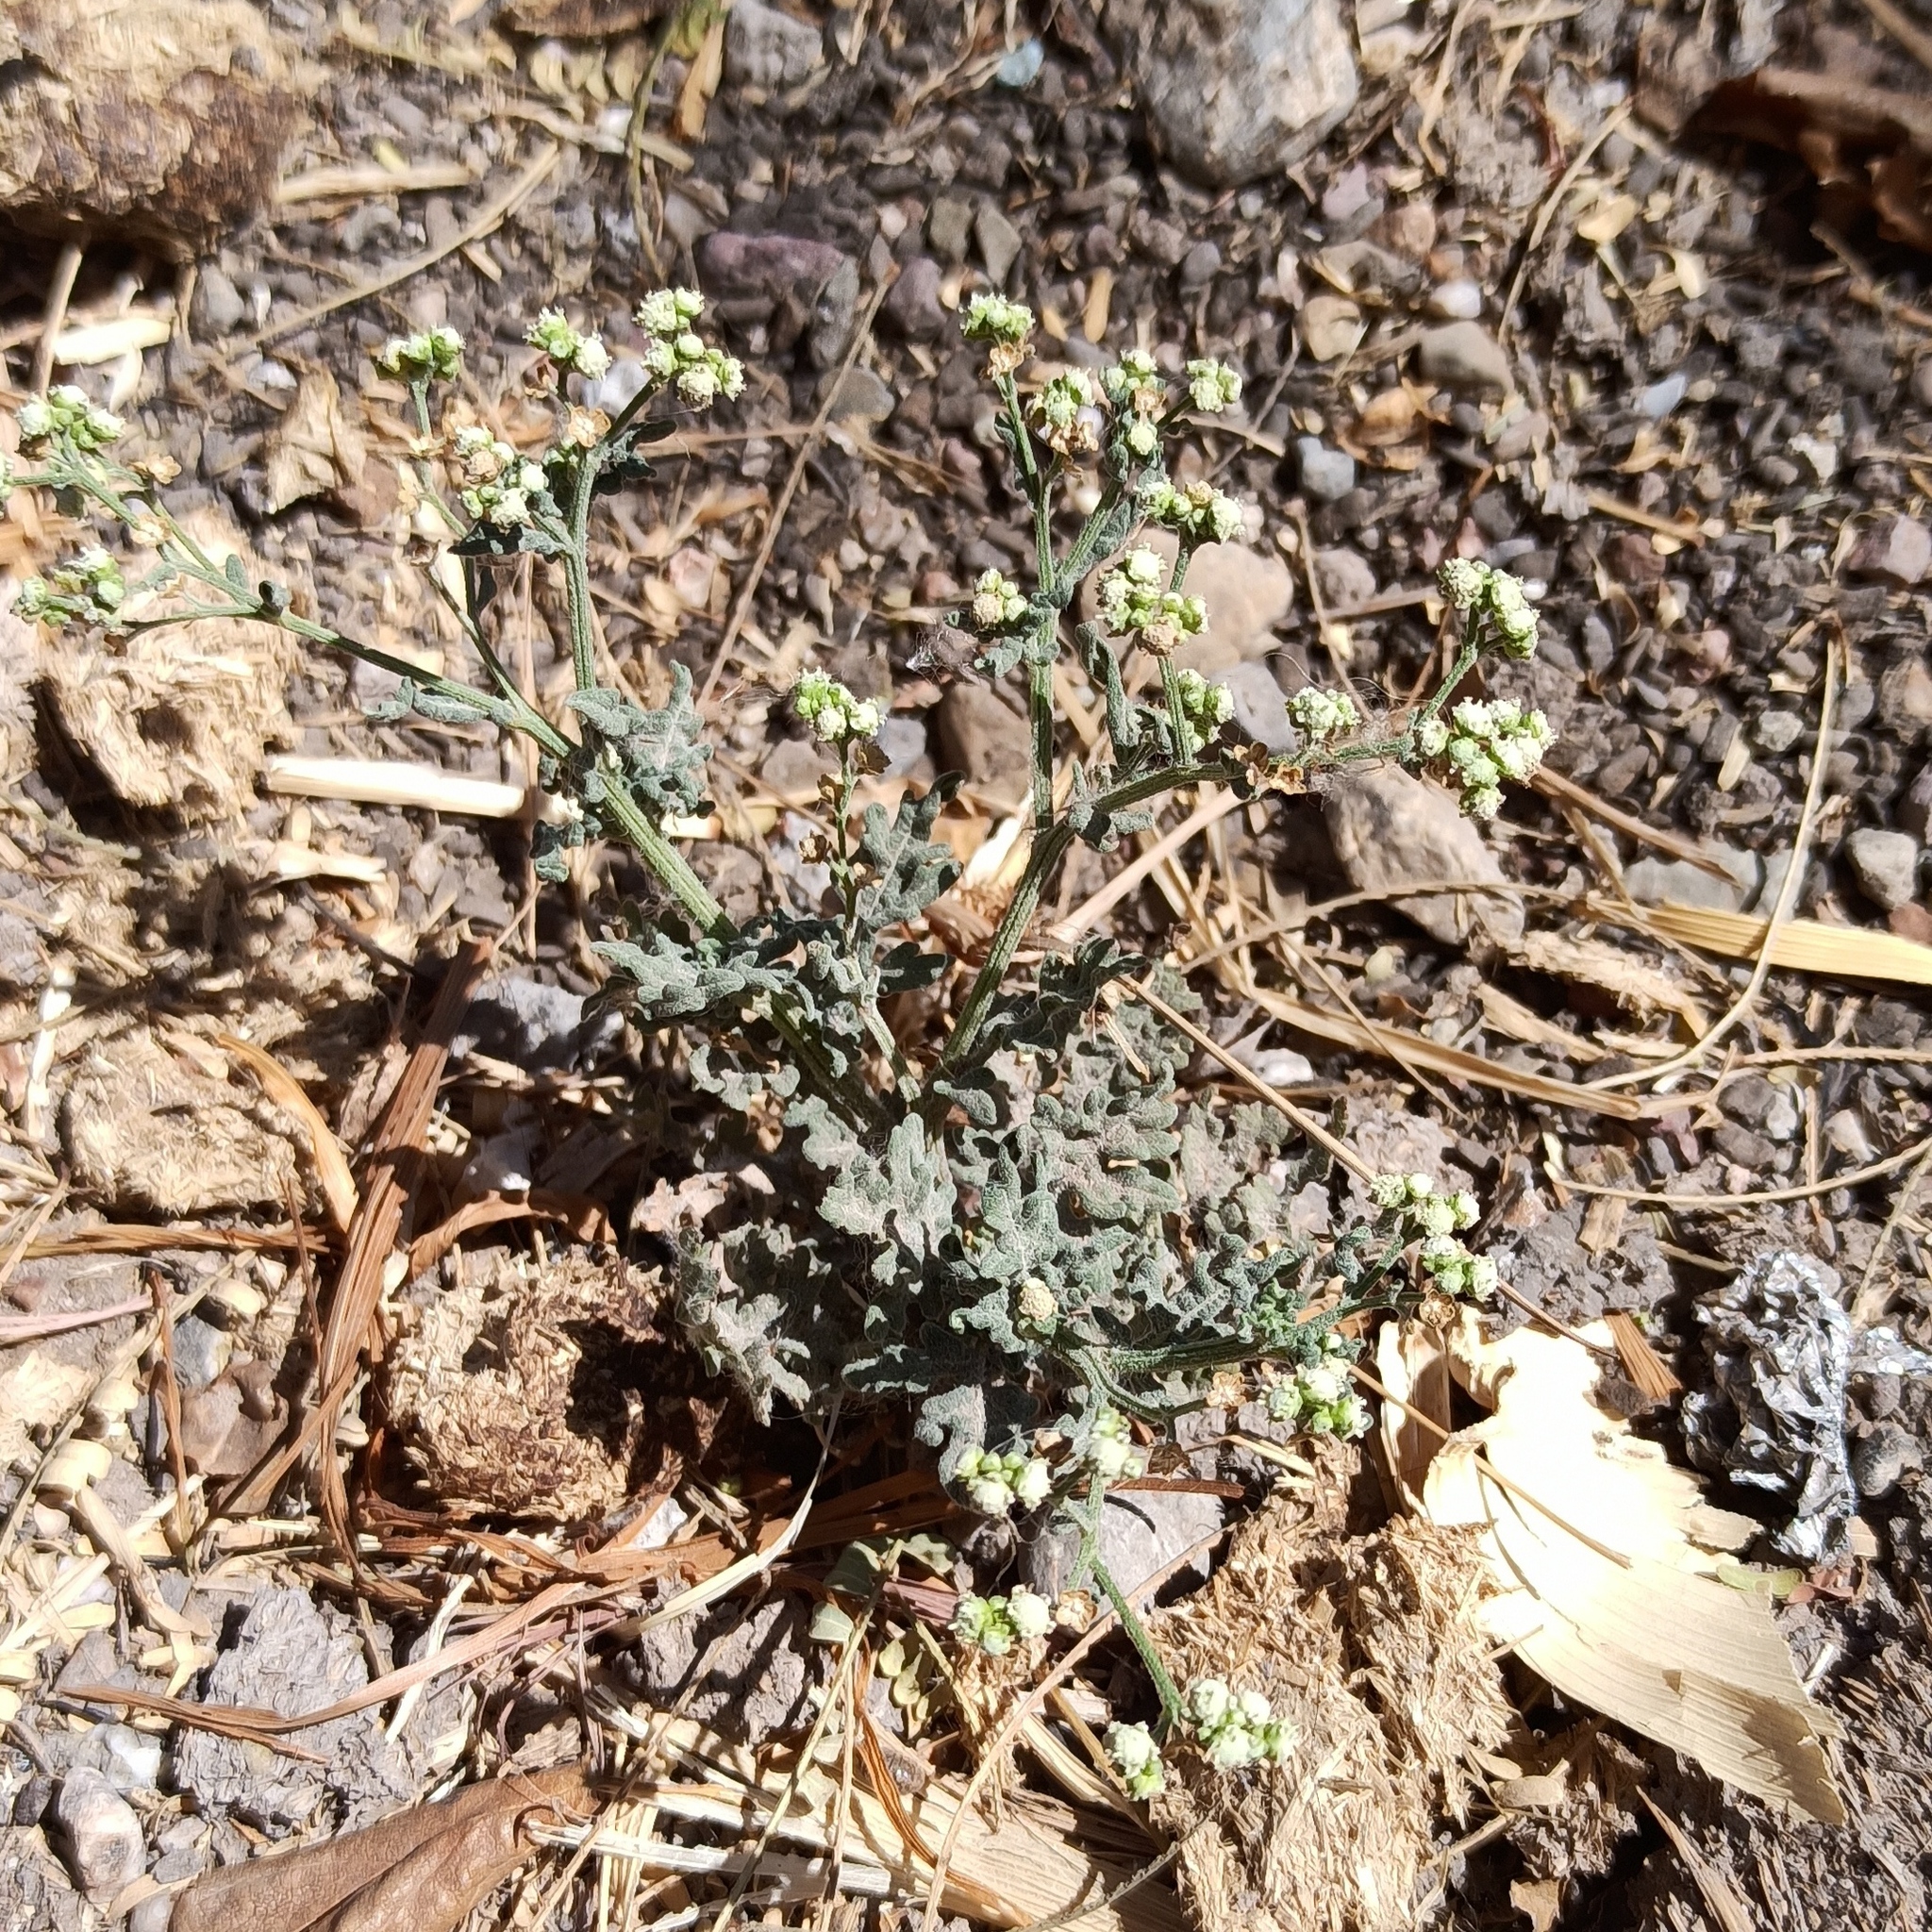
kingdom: Plantae
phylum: Tracheophyta
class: Magnoliopsida
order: Asterales
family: Asteraceae
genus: Parthenium
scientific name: Parthenium hysterophorus
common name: Santa maria feverfew
